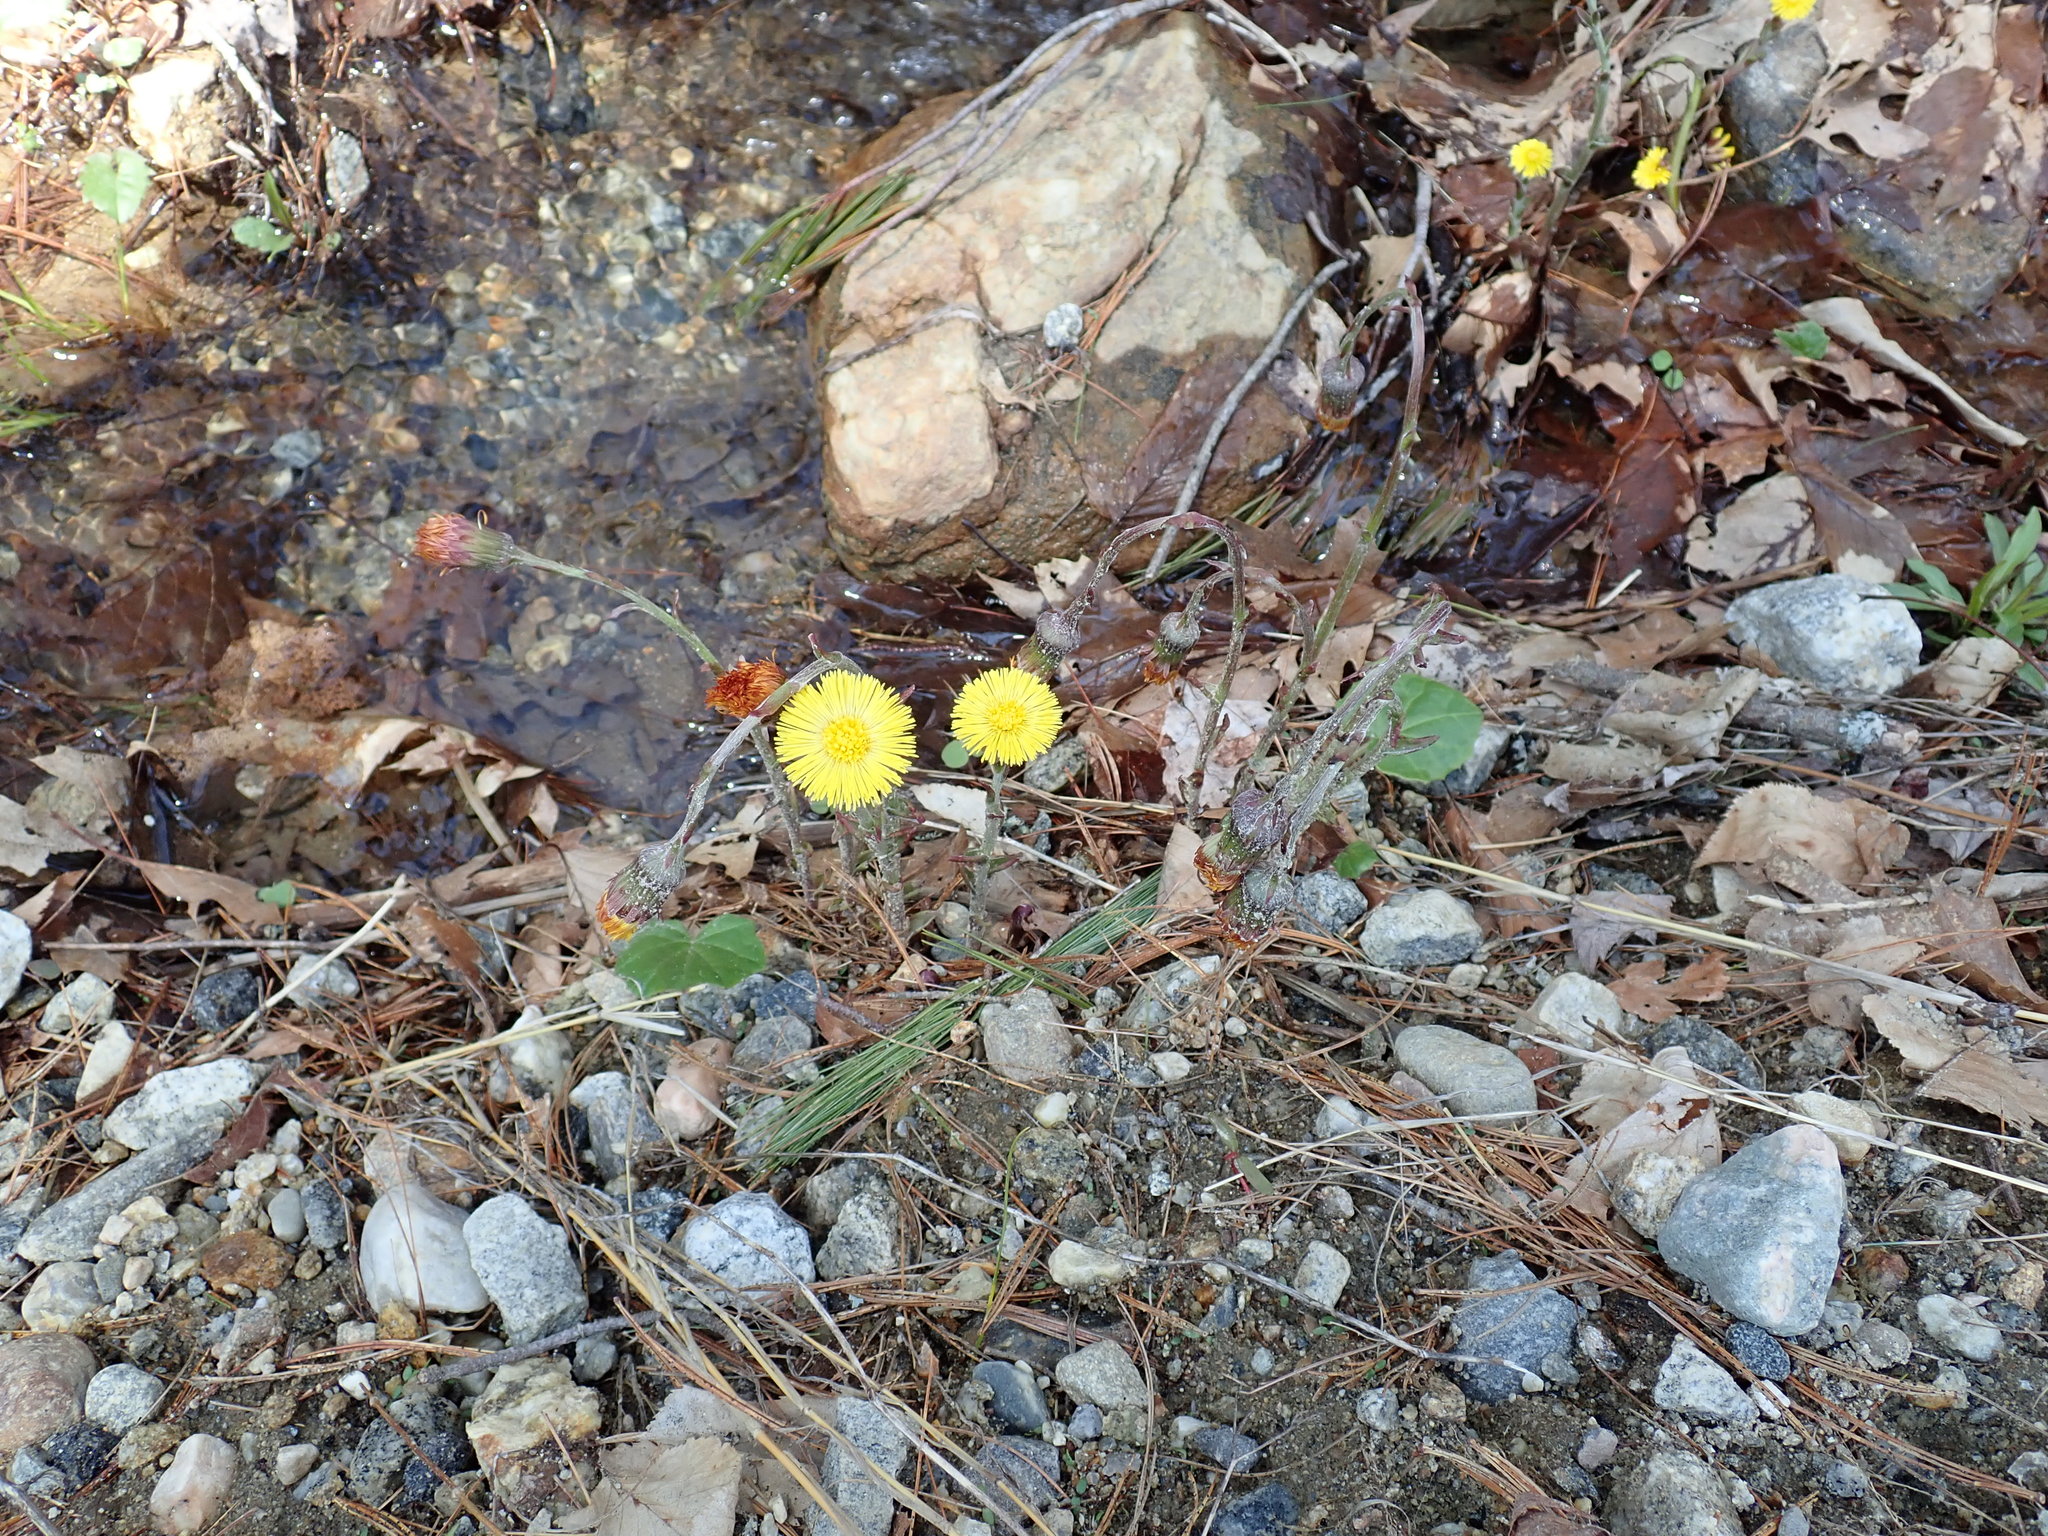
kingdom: Plantae
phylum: Tracheophyta
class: Magnoliopsida
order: Asterales
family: Asteraceae
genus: Tussilago
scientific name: Tussilago farfara
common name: Coltsfoot
